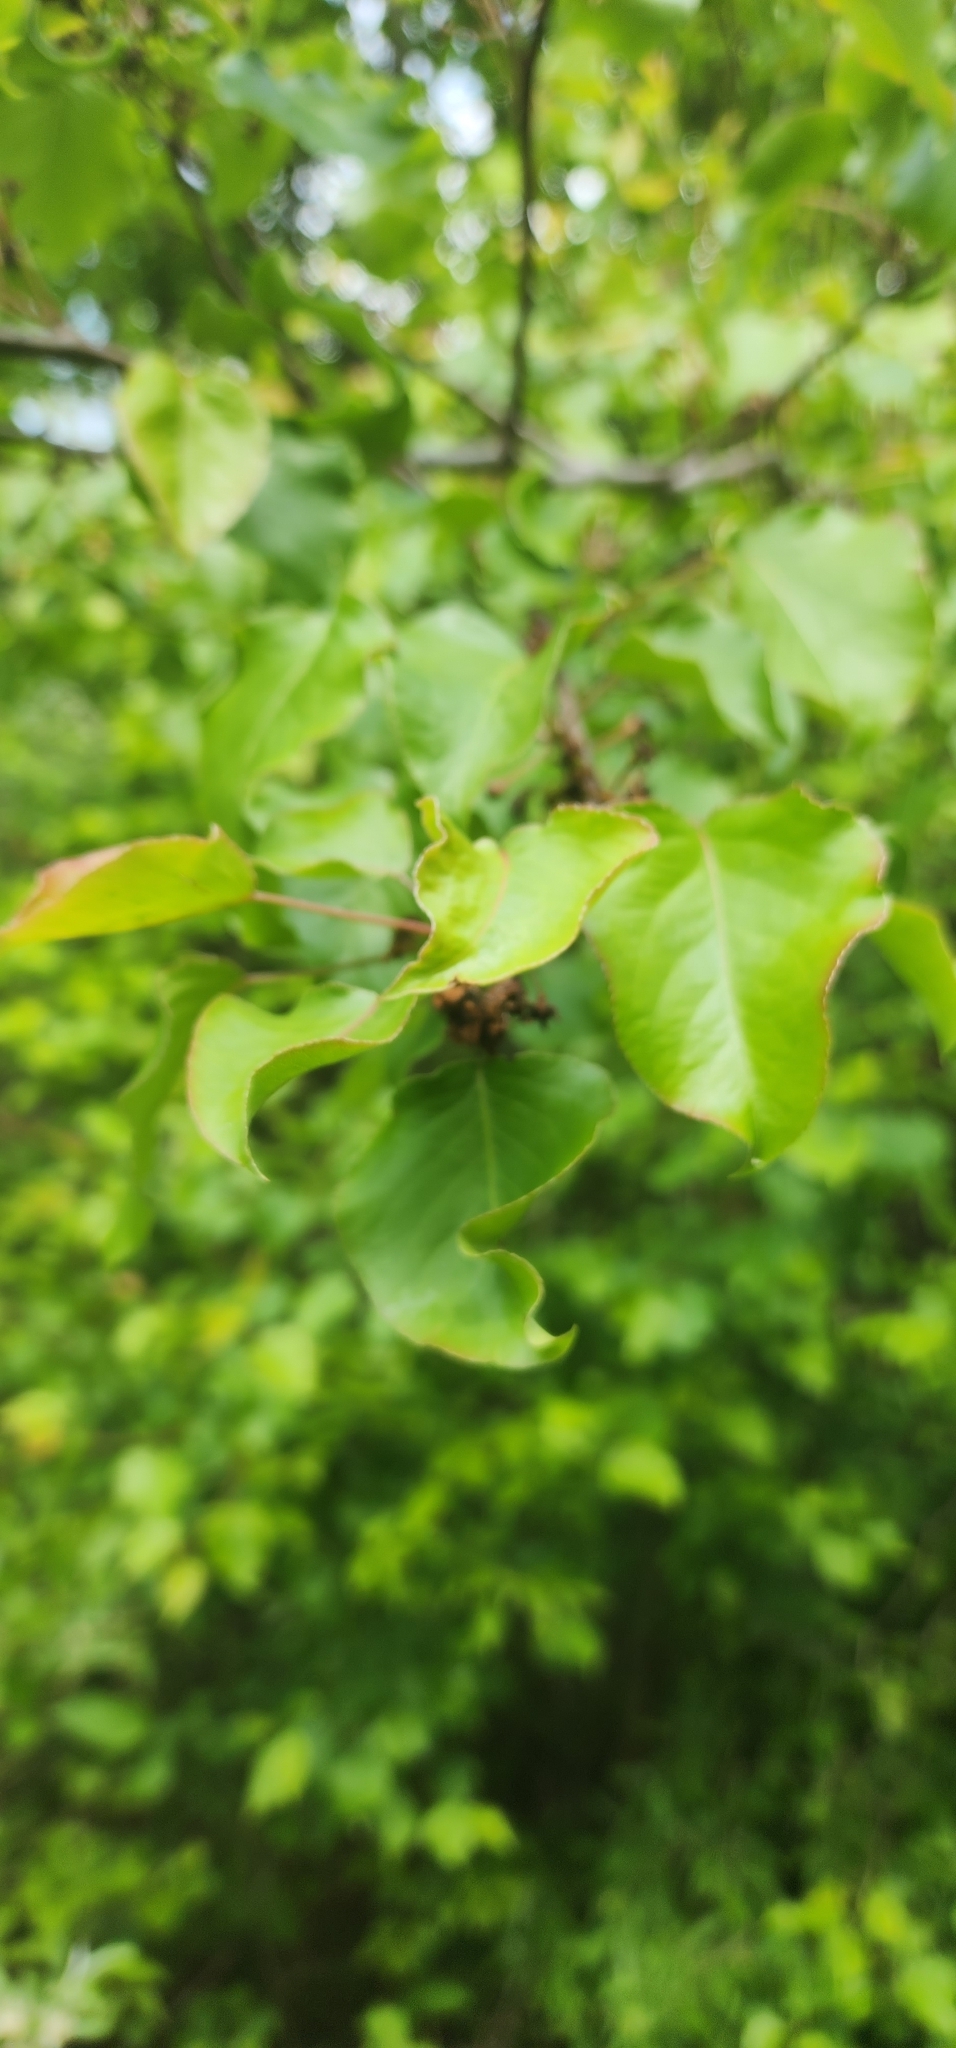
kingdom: Plantae
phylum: Tracheophyta
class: Magnoliopsida
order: Rosales
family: Rosaceae
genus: Pyrus
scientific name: Pyrus calleryana
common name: Callery pear
